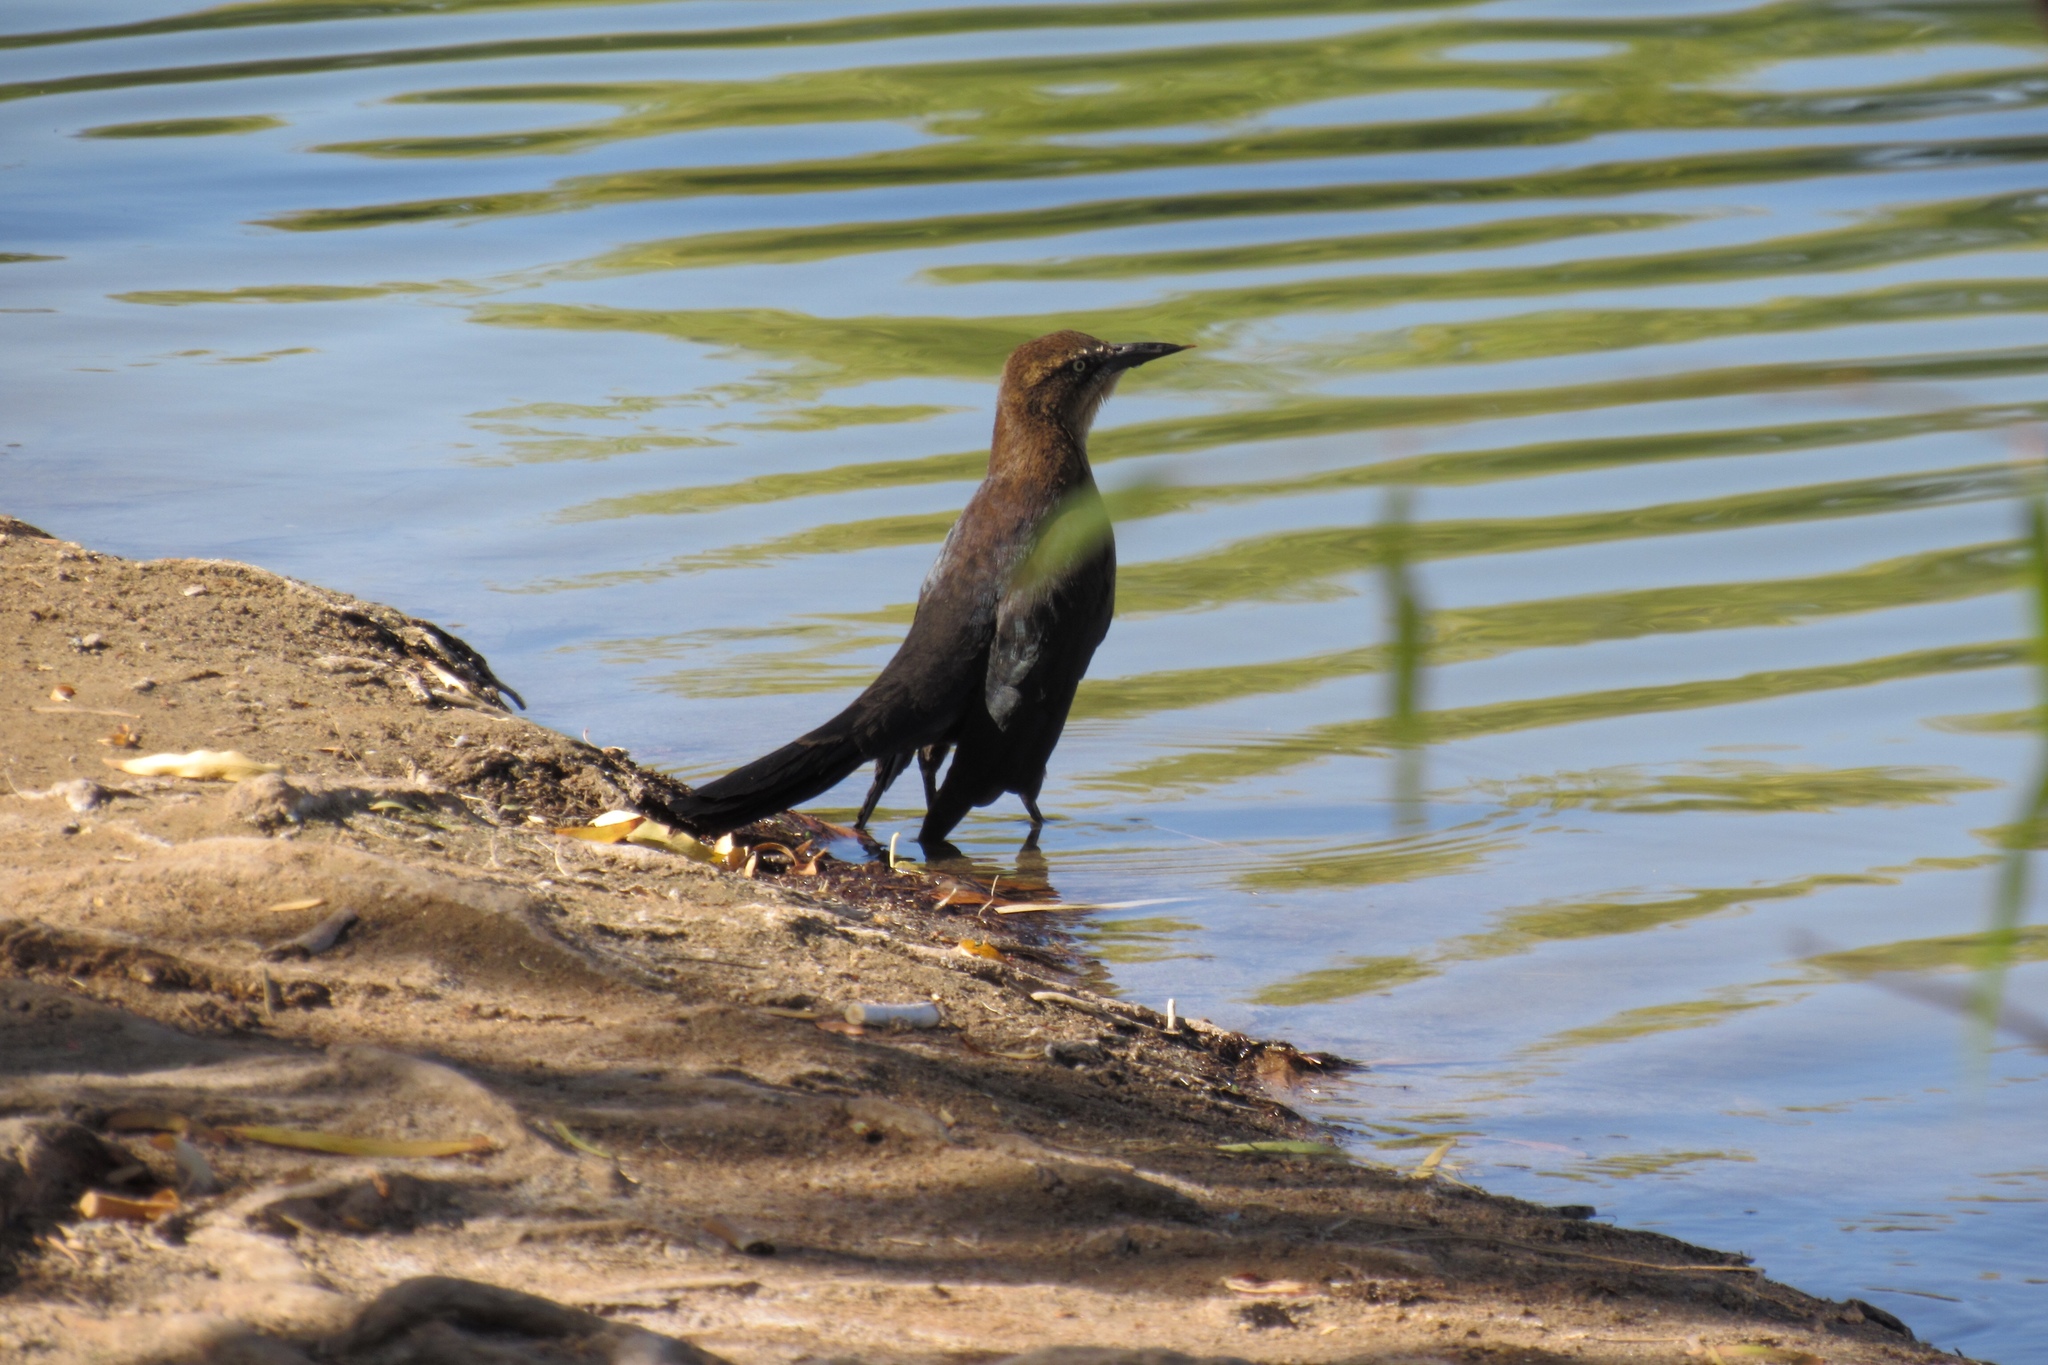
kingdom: Animalia
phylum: Chordata
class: Aves
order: Passeriformes
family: Icteridae
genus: Quiscalus
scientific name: Quiscalus mexicanus
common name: Great-tailed grackle
